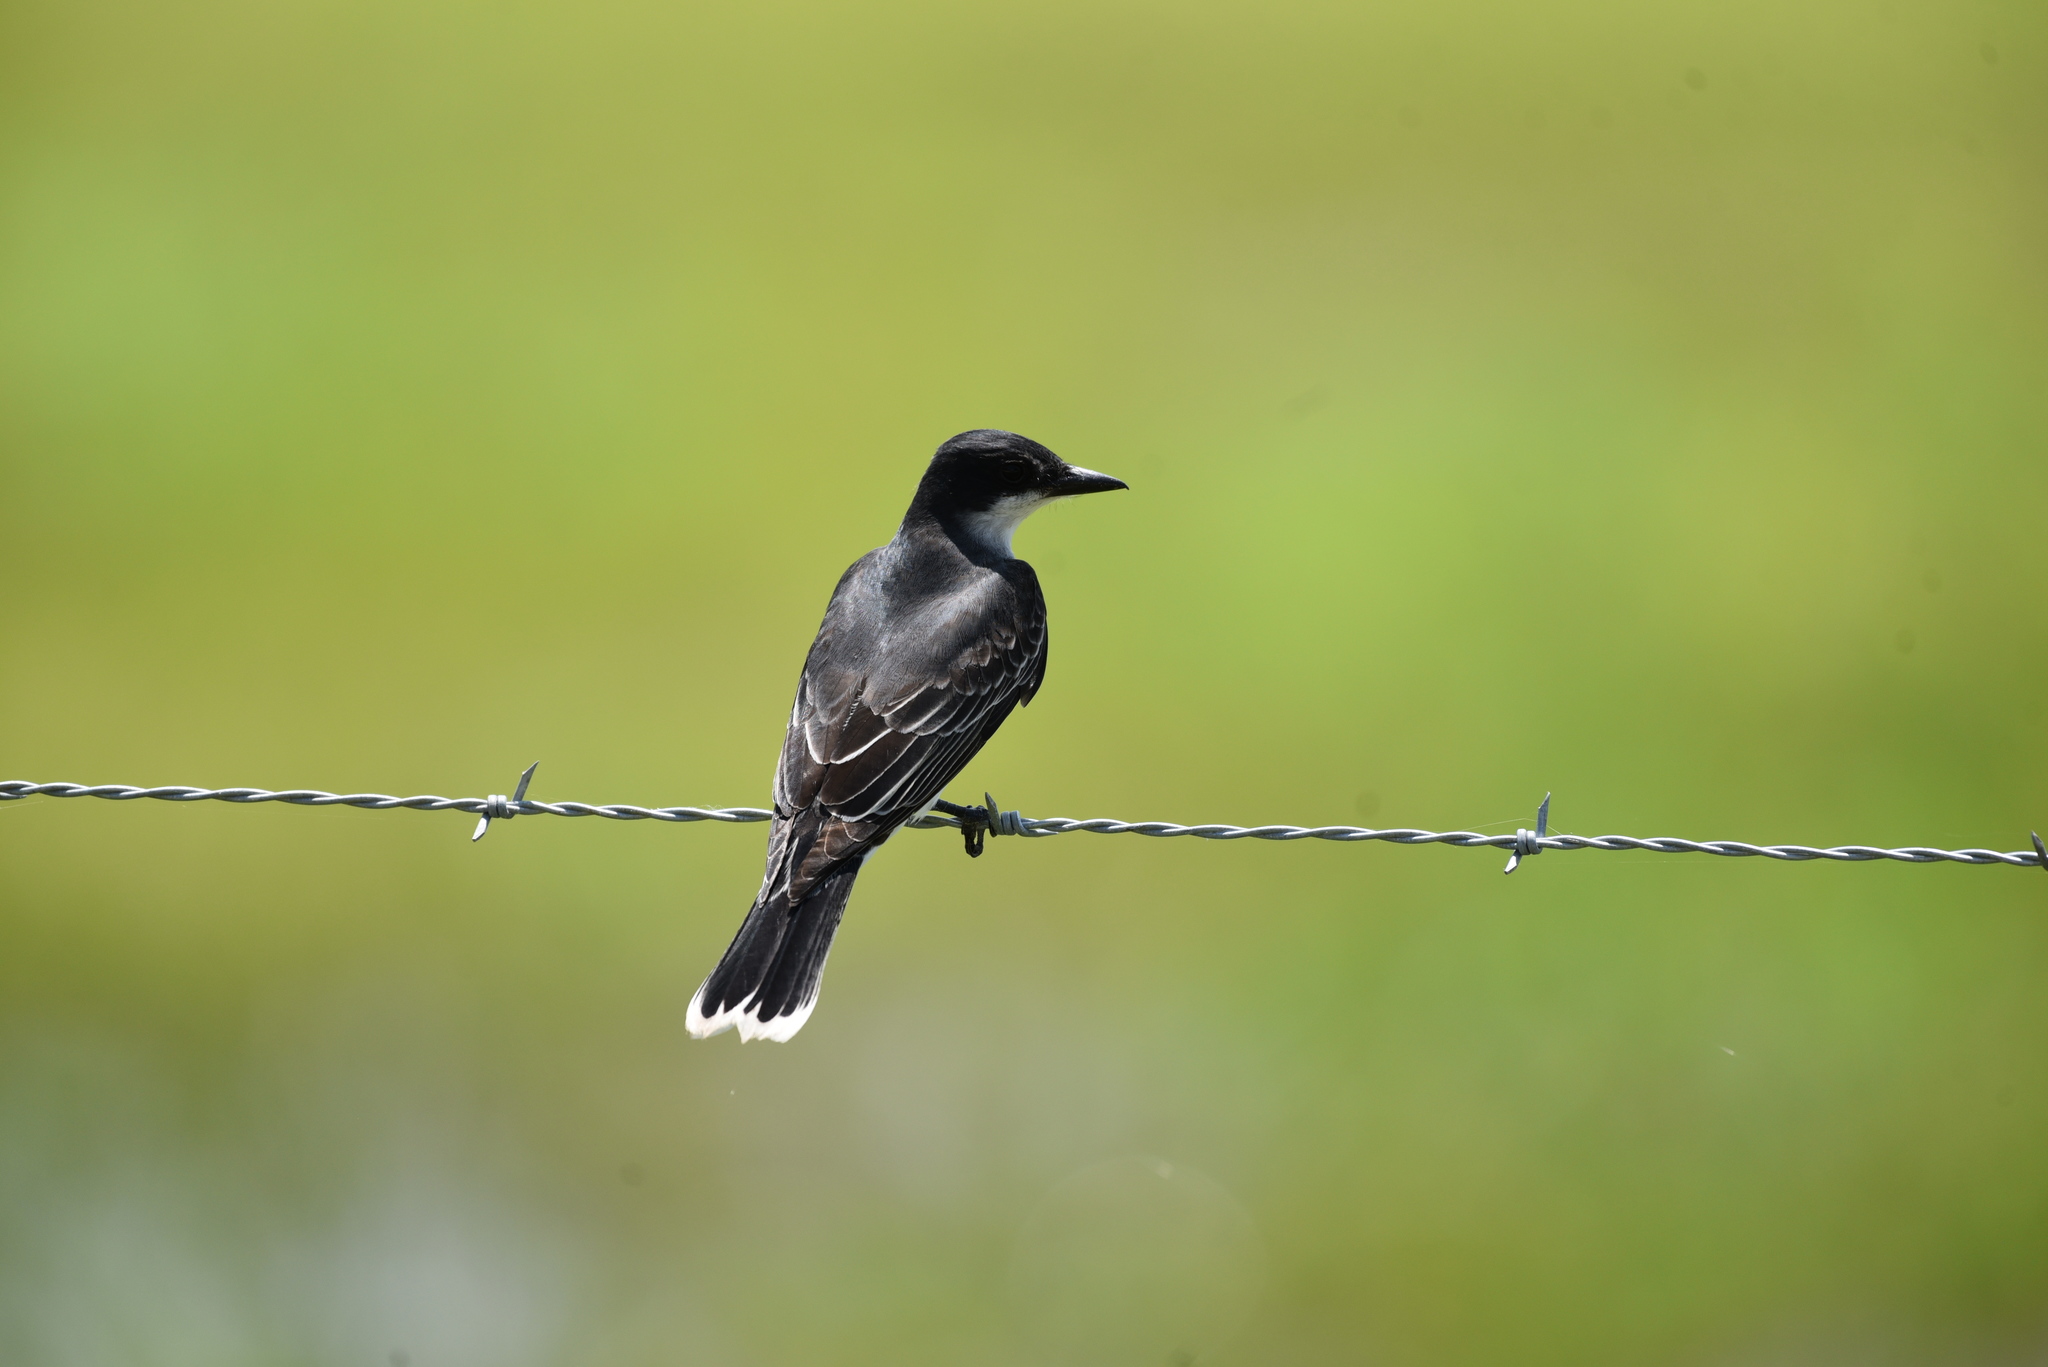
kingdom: Animalia
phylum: Chordata
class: Aves
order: Passeriformes
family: Tyrannidae
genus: Tyrannus
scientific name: Tyrannus tyrannus
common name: Eastern kingbird
